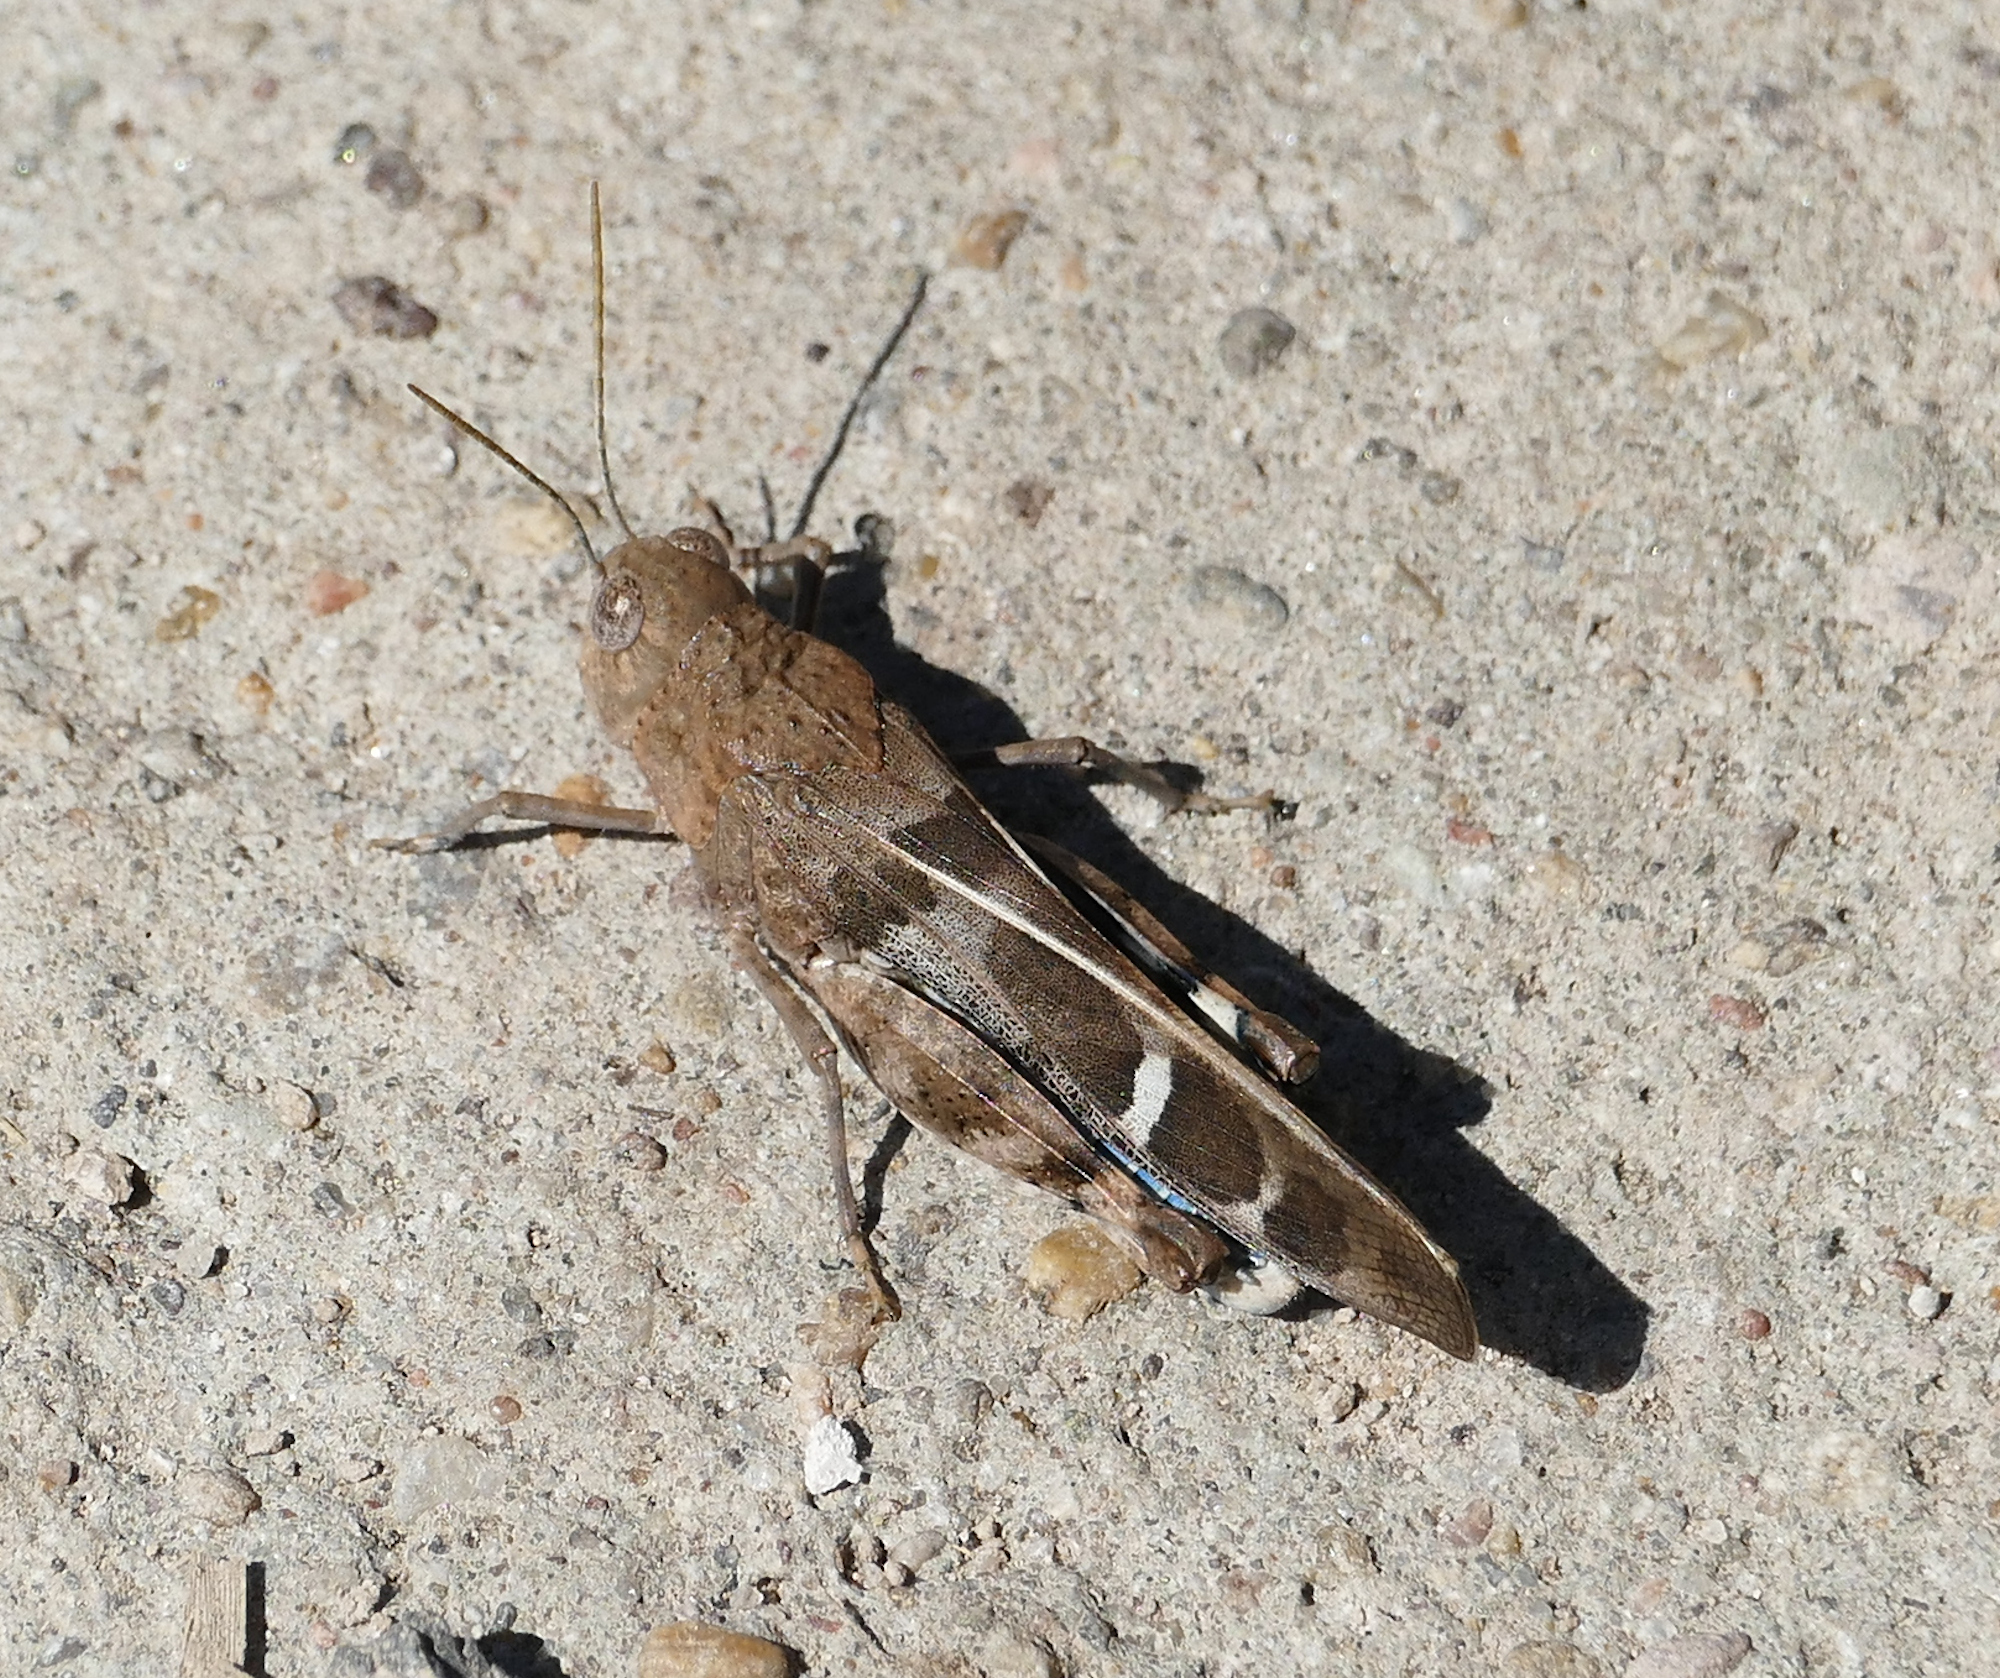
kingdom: Animalia
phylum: Arthropoda
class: Insecta
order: Orthoptera
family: Acrididae
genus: Leprus
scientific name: Leprus intermedius
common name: Saussure's blue-winged grasshopper
